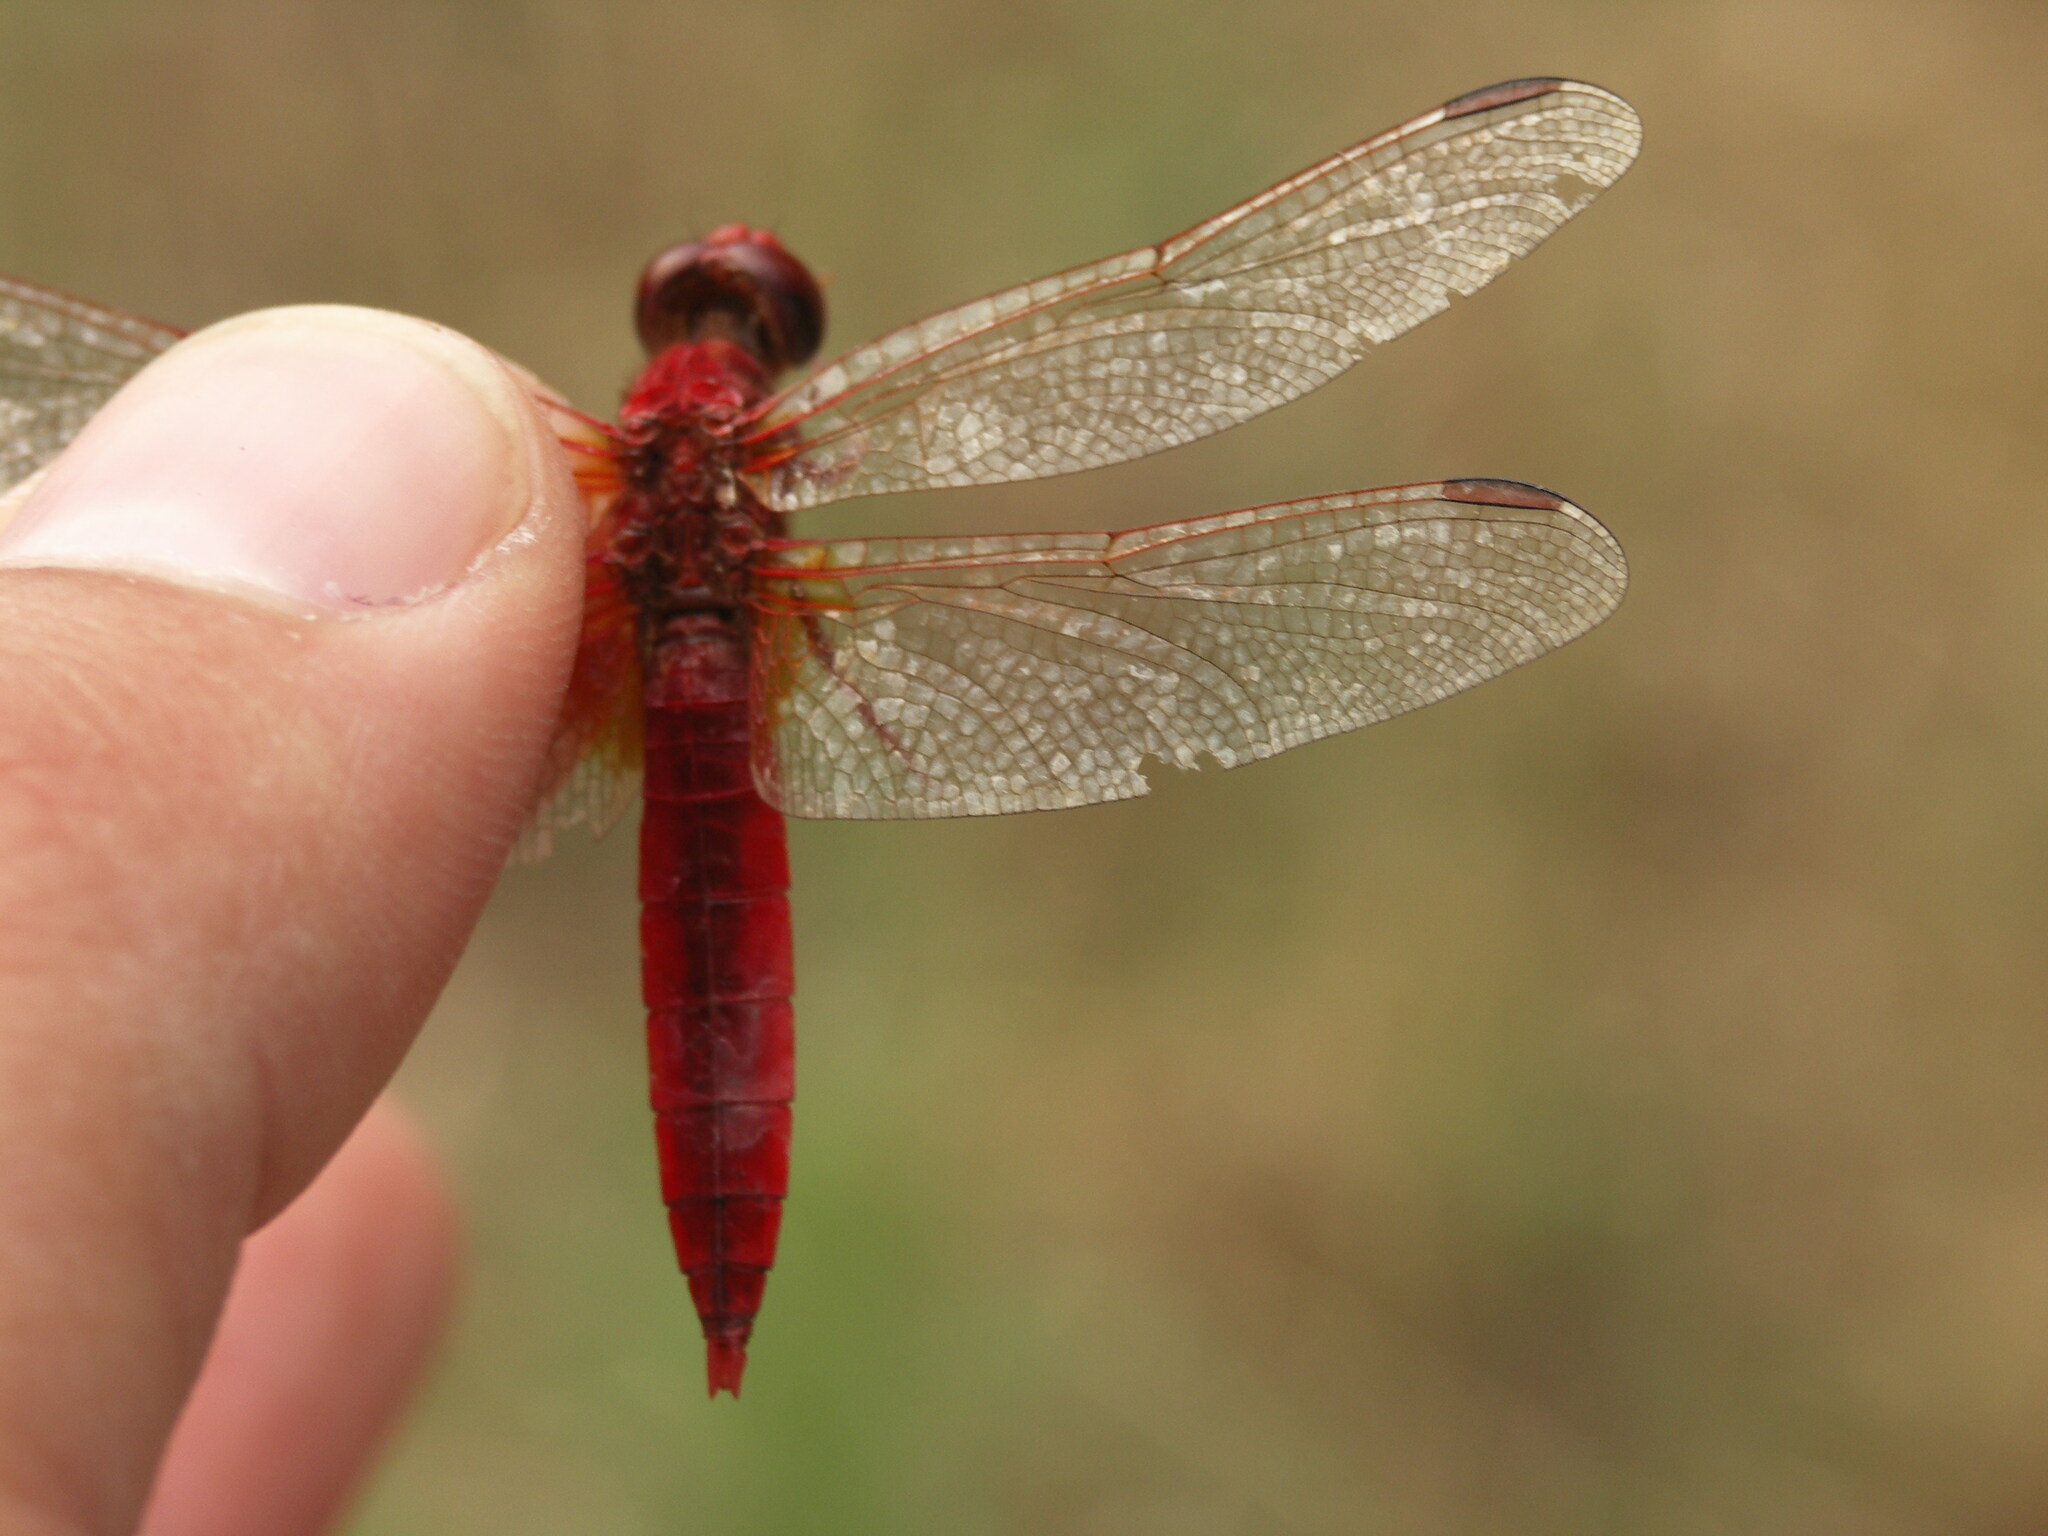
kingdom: Animalia
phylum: Arthropoda
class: Insecta
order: Odonata
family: Libellulidae
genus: Crocothemis
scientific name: Crocothemis erythraea
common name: Scarlet dragonfly
